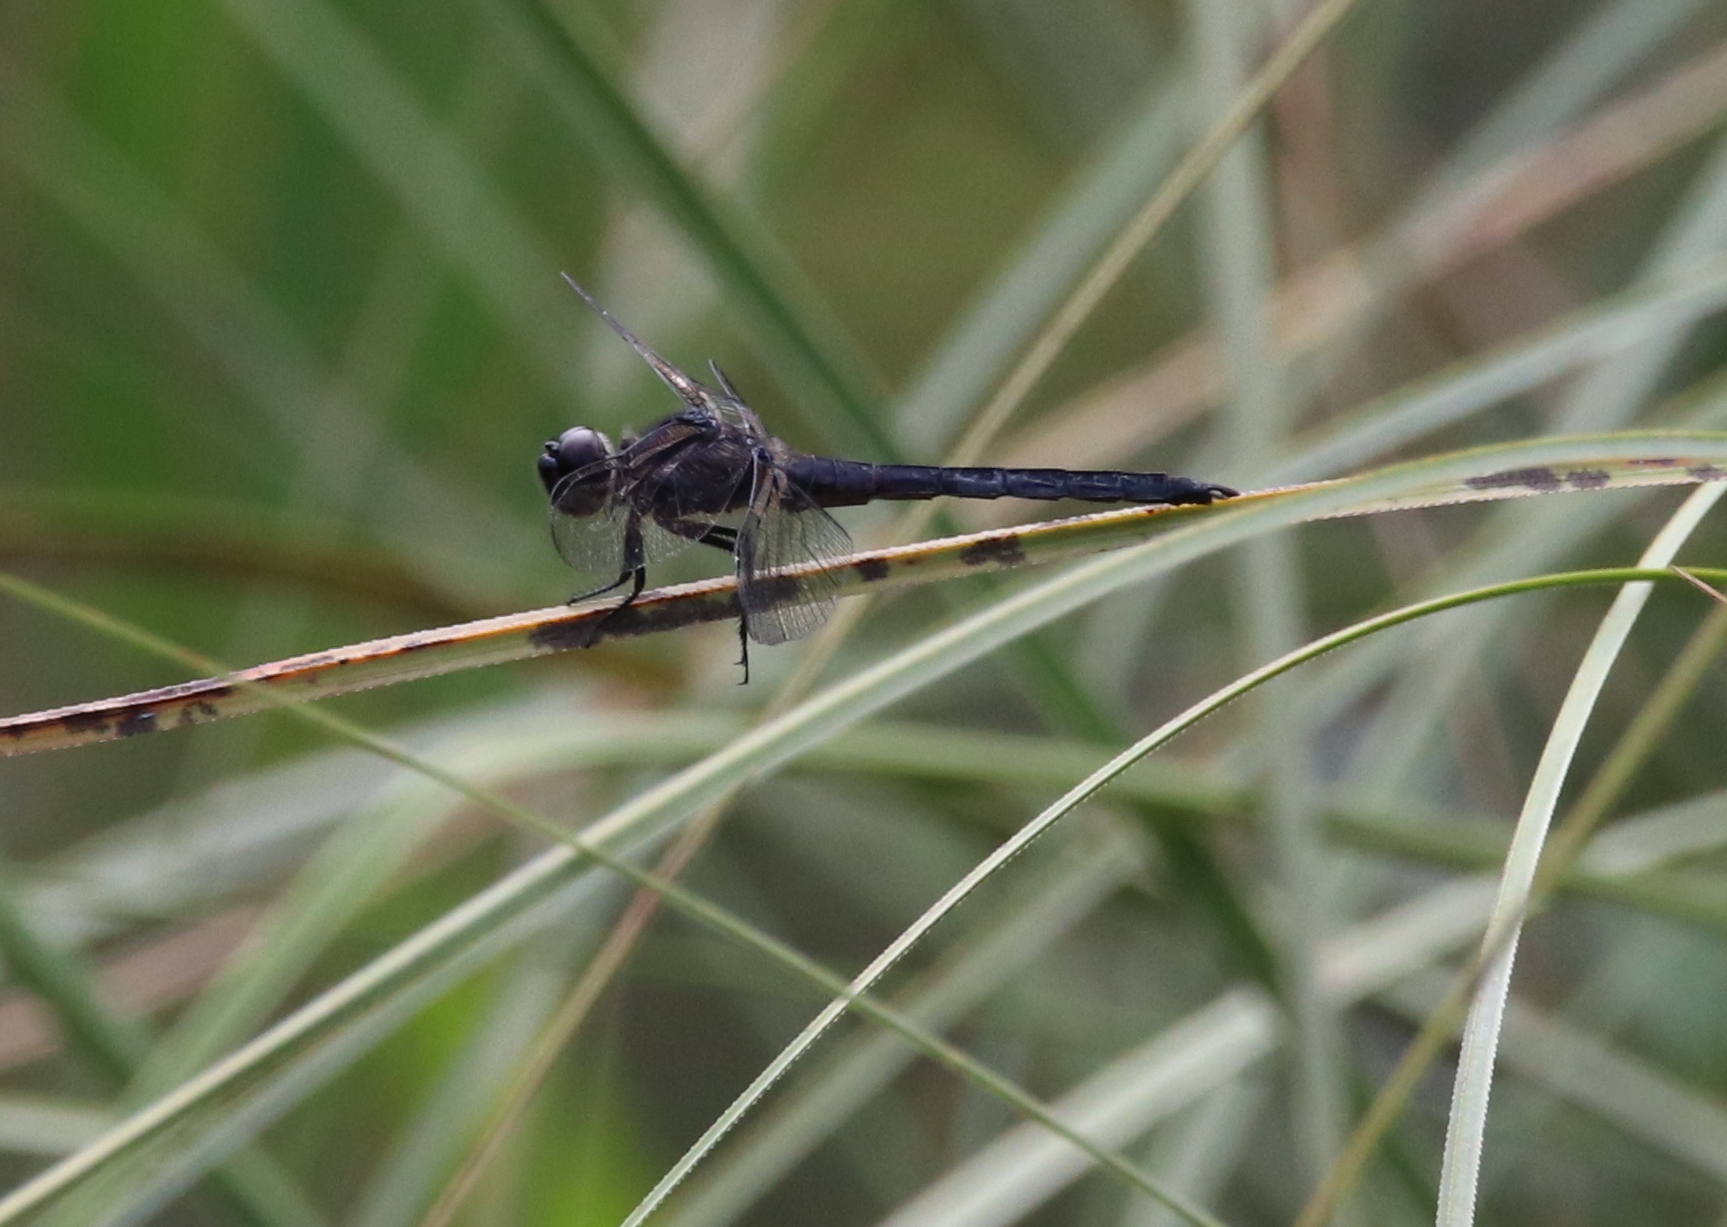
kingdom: Animalia
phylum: Arthropoda
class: Insecta
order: Odonata
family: Libellulidae
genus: Libellula
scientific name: Libellula incesta
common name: Slaty skimmer
